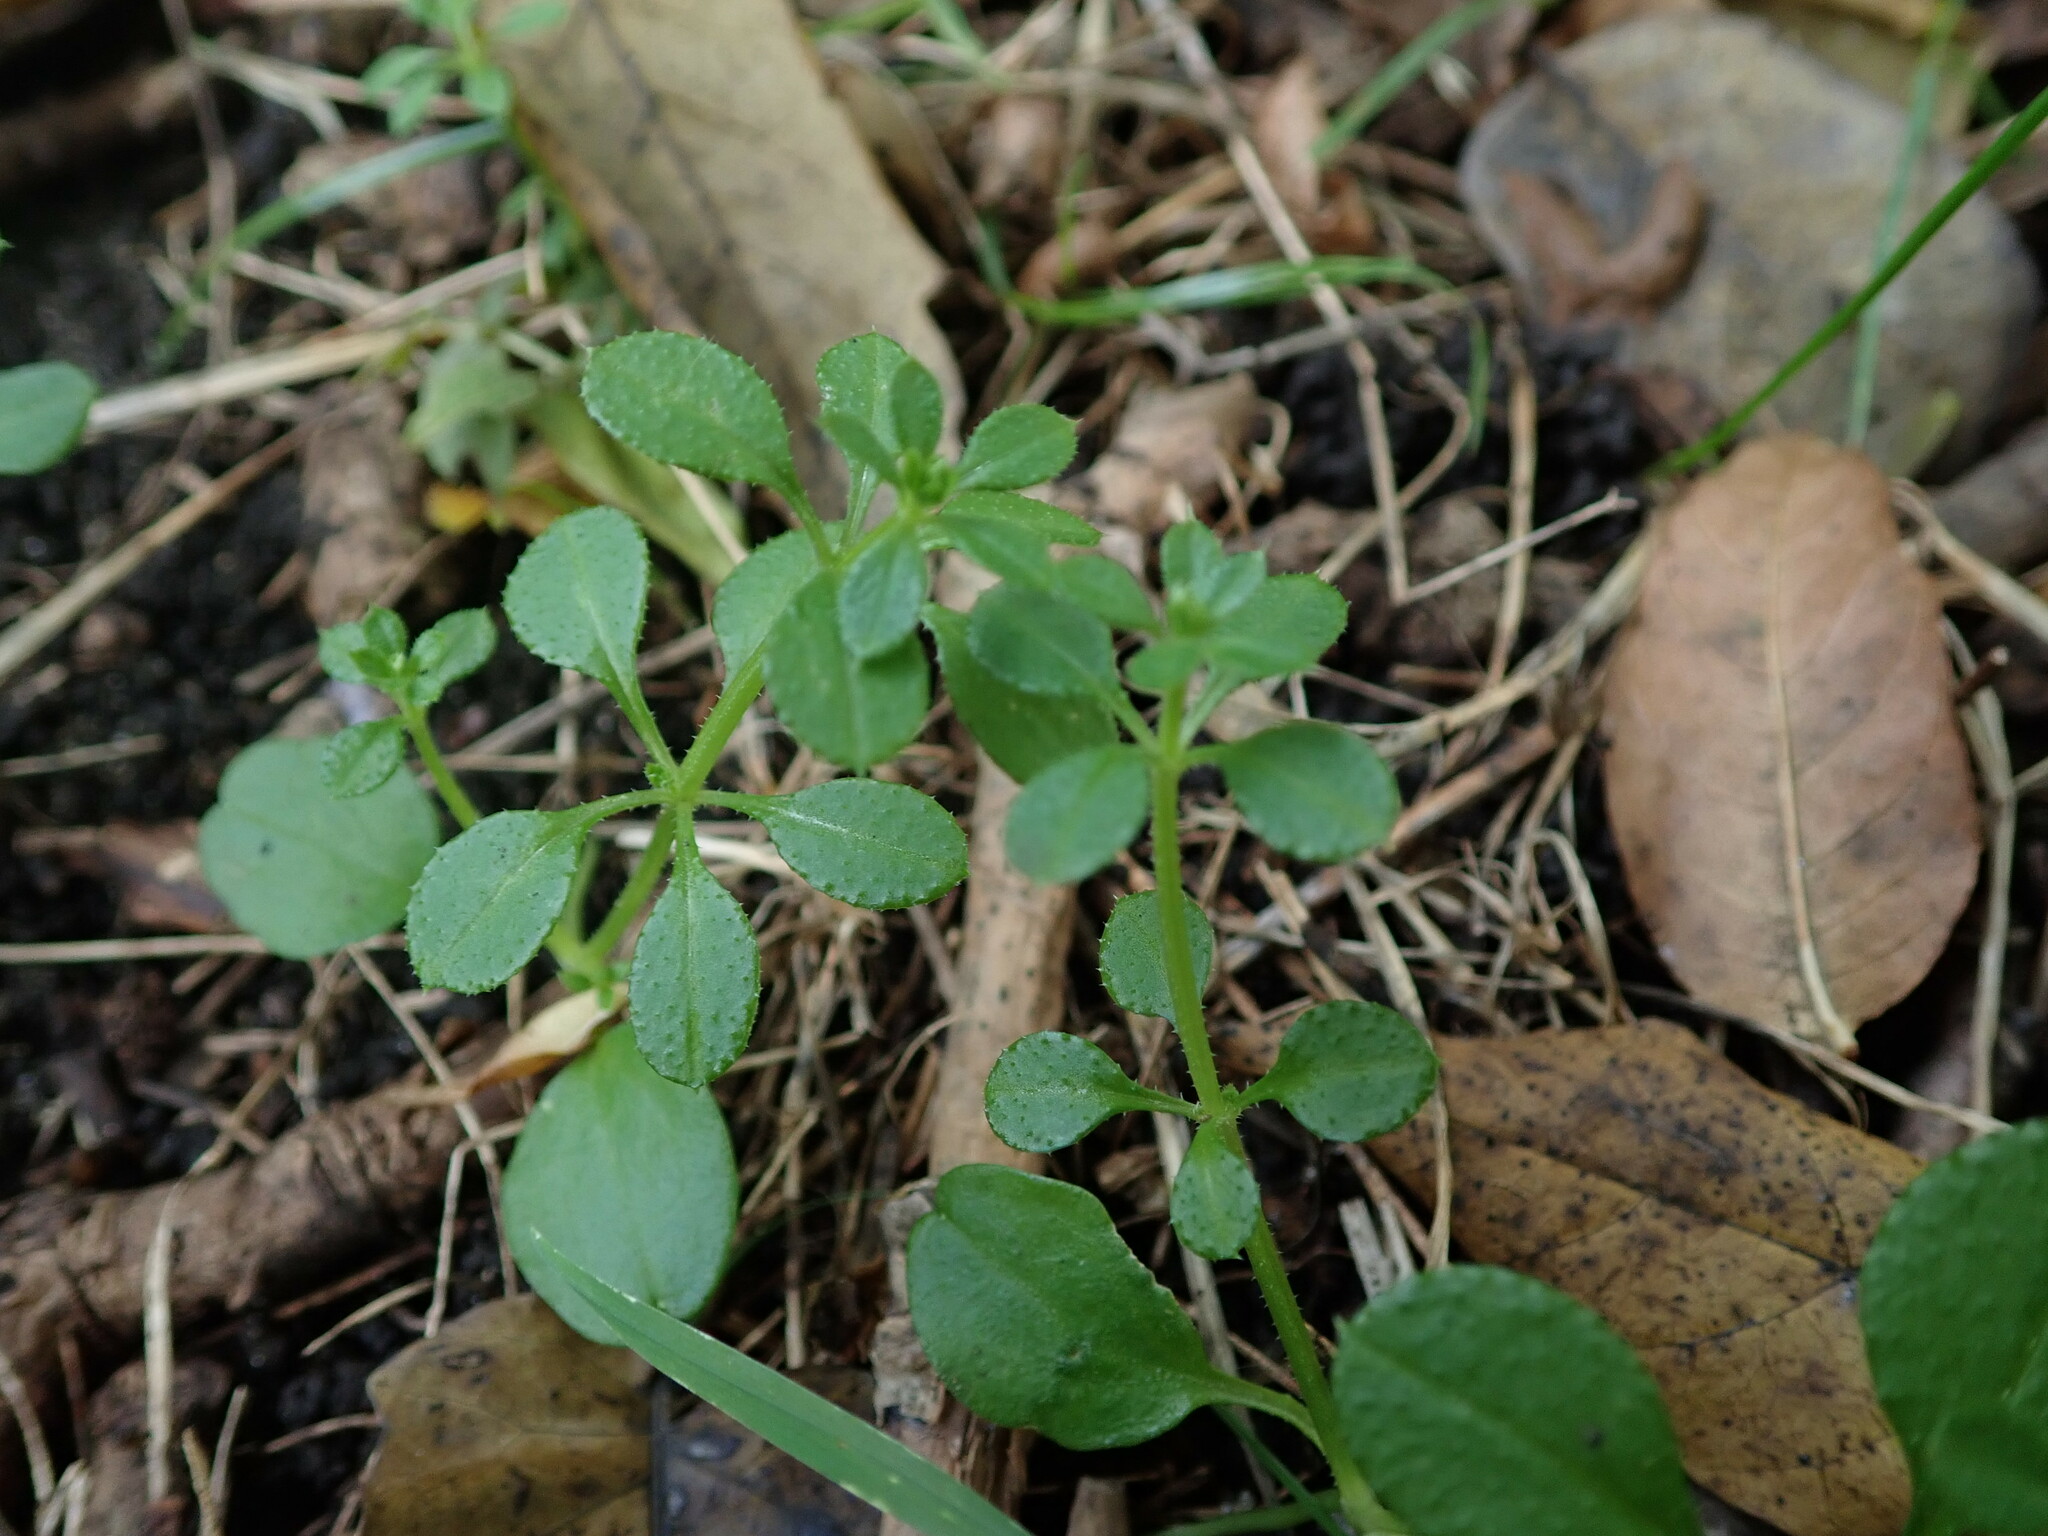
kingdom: Plantae
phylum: Tracheophyta
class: Magnoliopsida
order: Gentianales
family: Rubiaceae
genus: Galium
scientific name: Galium aparine
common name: Cleavers
